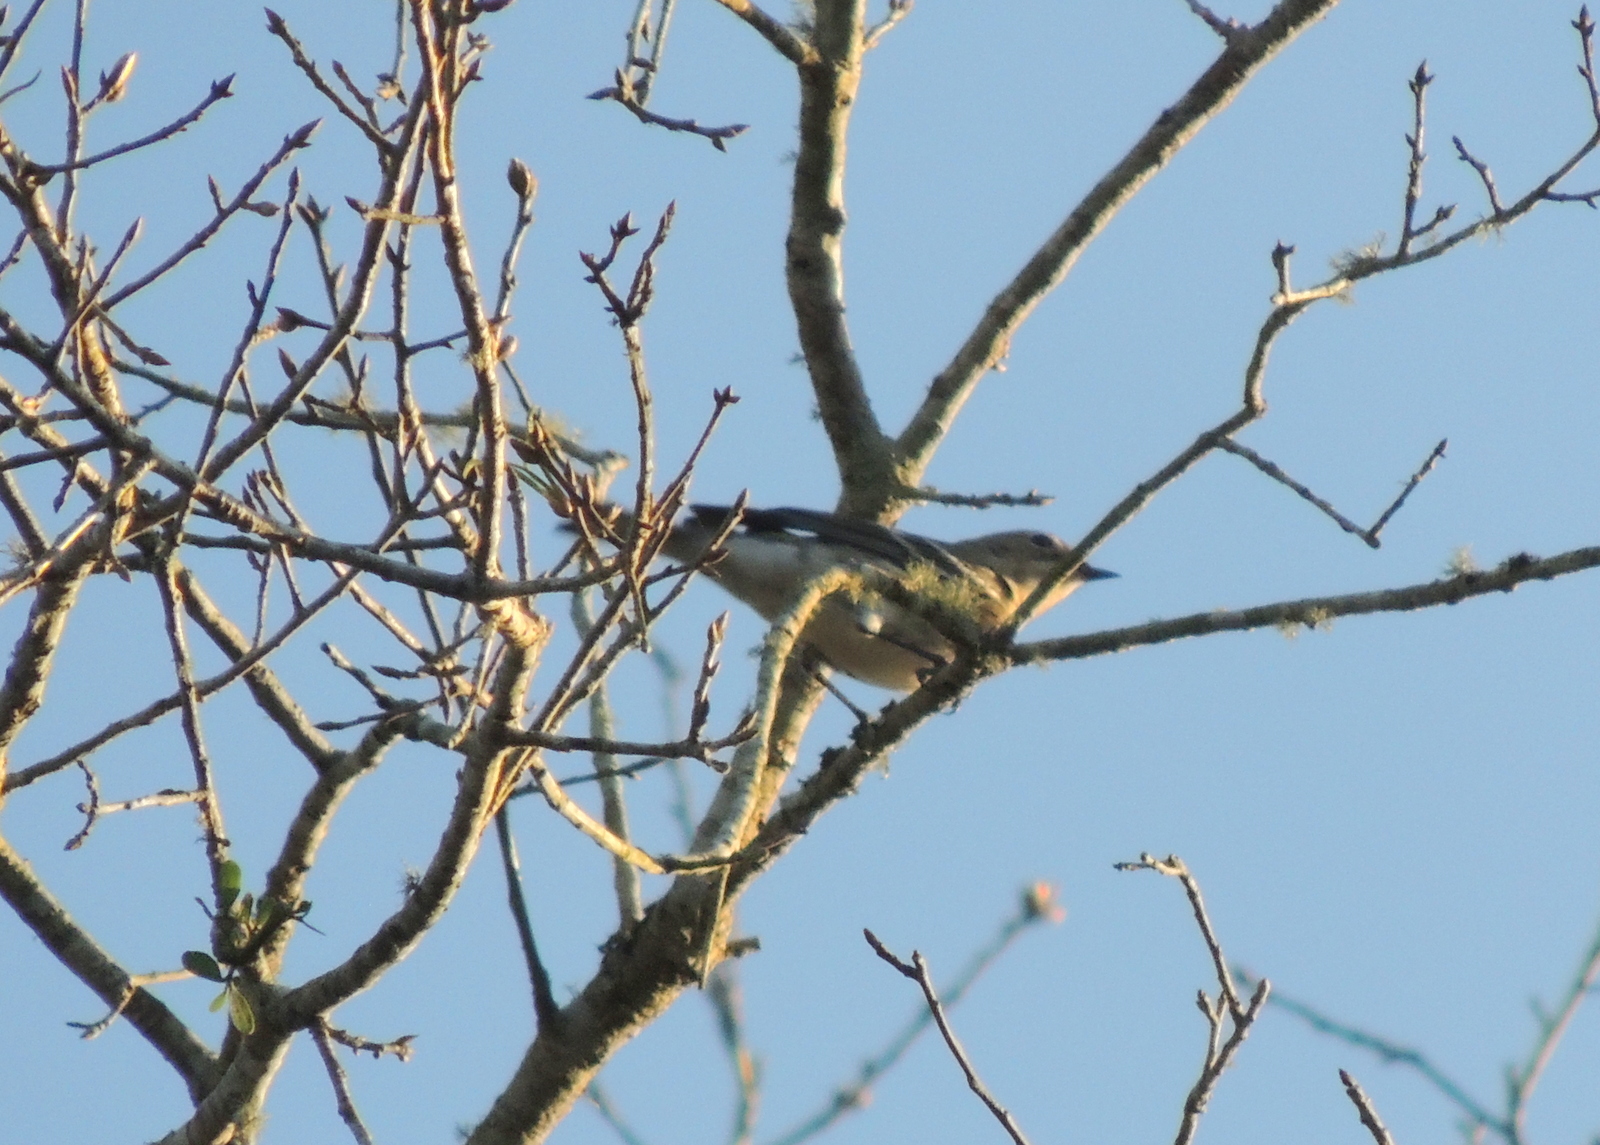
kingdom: Animalia
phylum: Chordata
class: Aves
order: Passeriformes
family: Parulidae
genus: Setophaga
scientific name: Setophaga coronata
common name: Myrtle warbler
